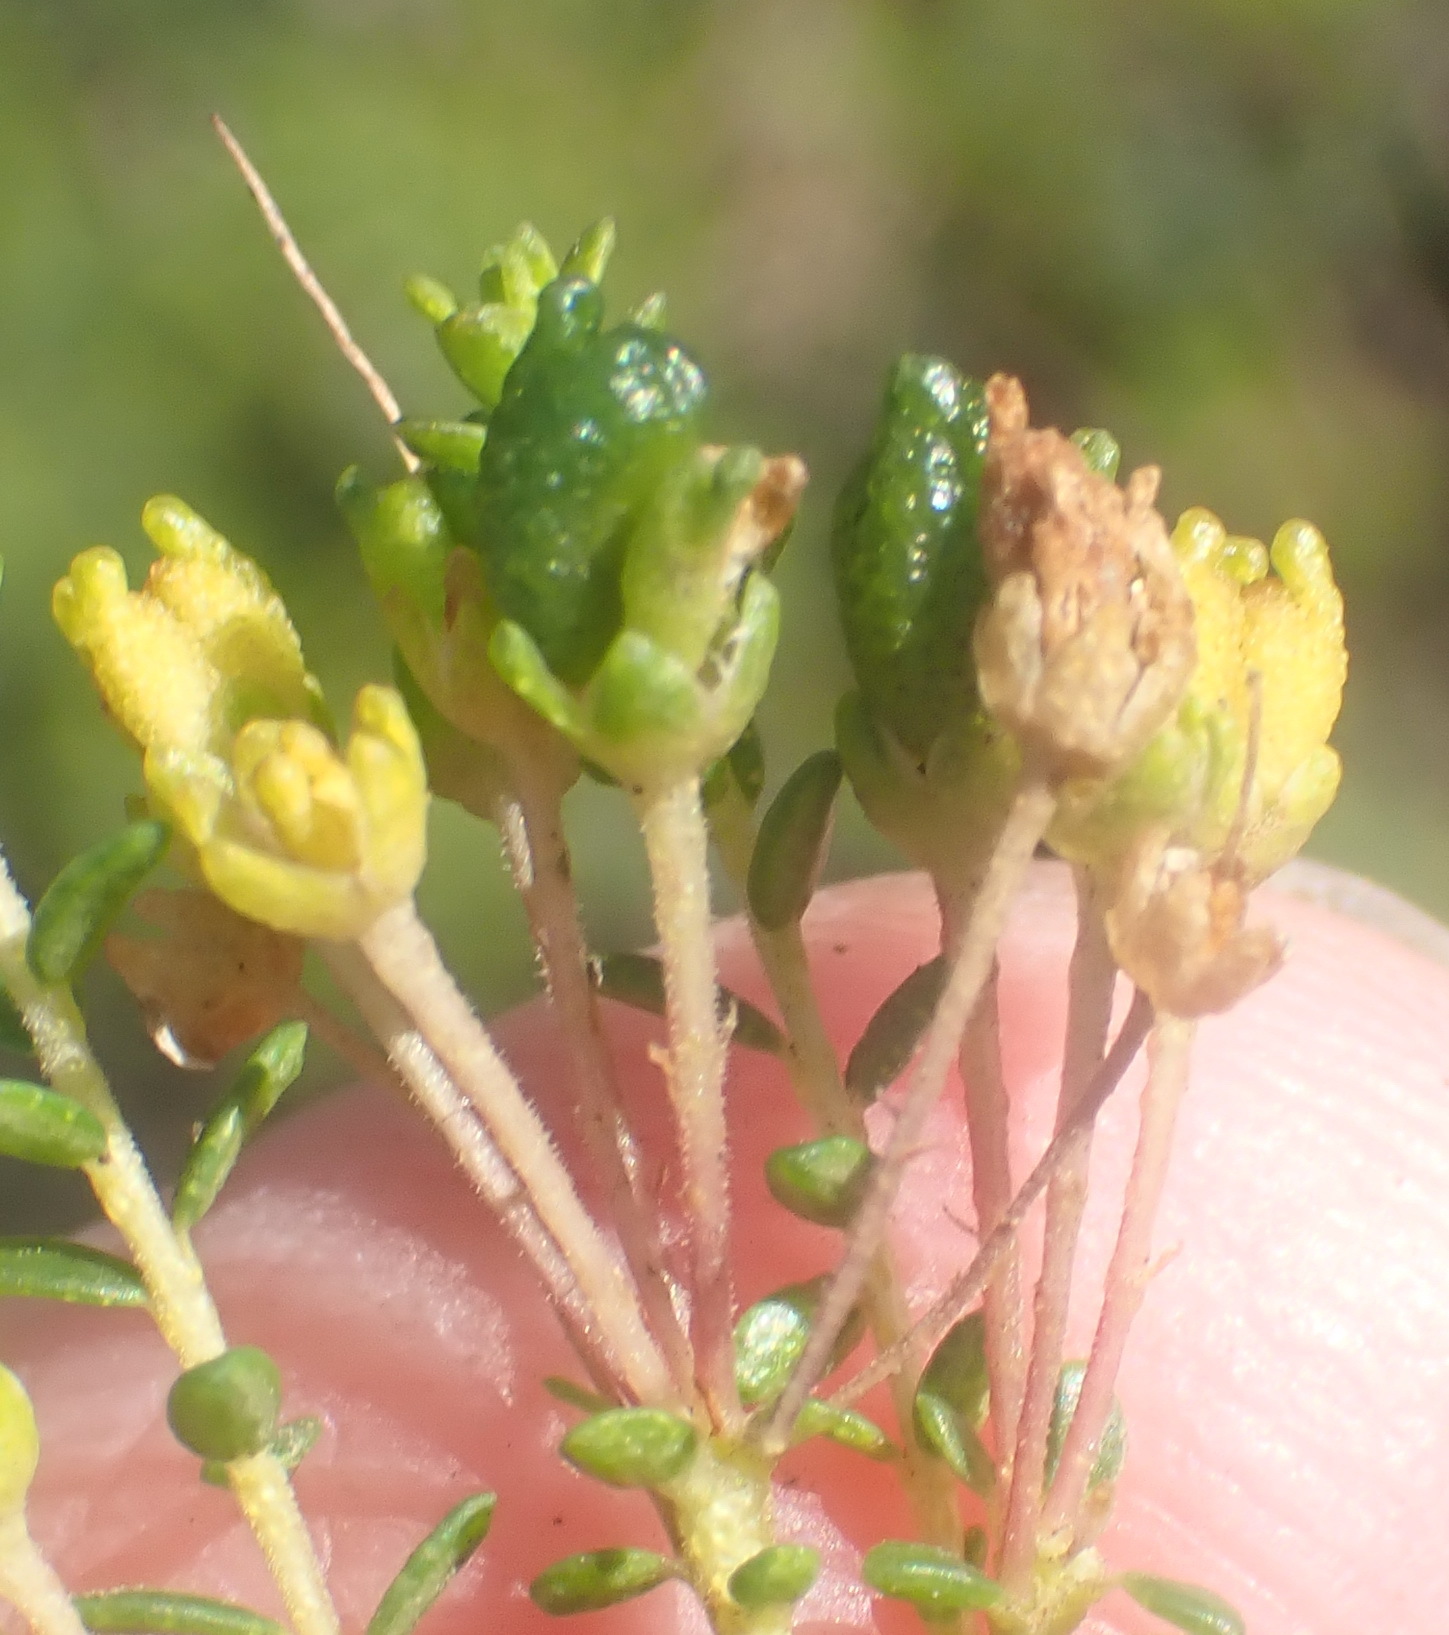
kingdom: Plantae
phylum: Tracheophyta
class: Magnoliopsida
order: Sapindales
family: Rutaceae
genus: Agathosma
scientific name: Agathosma capensis
